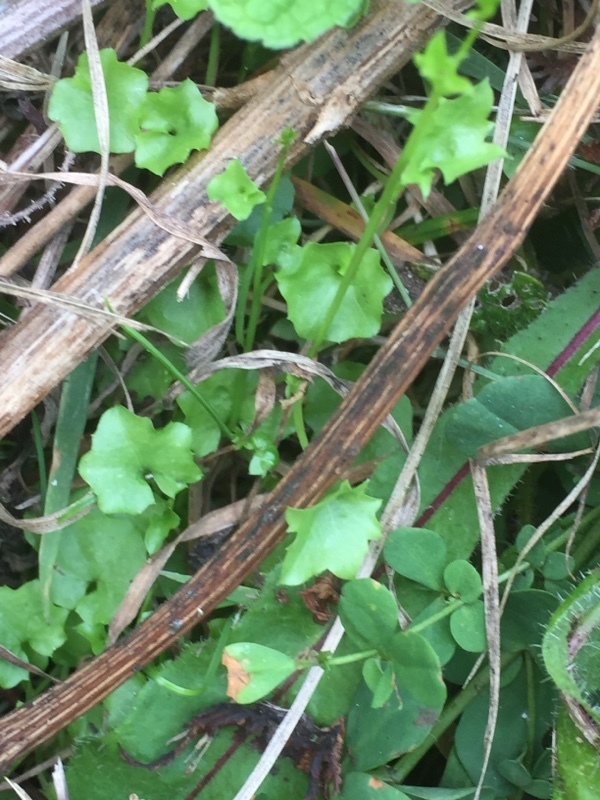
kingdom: Plantae
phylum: Tracheophyta
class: Magnoliopsida
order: Asterales
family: Campanulaceae
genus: Hesperocodon
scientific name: Hesperocodon hederaceus
